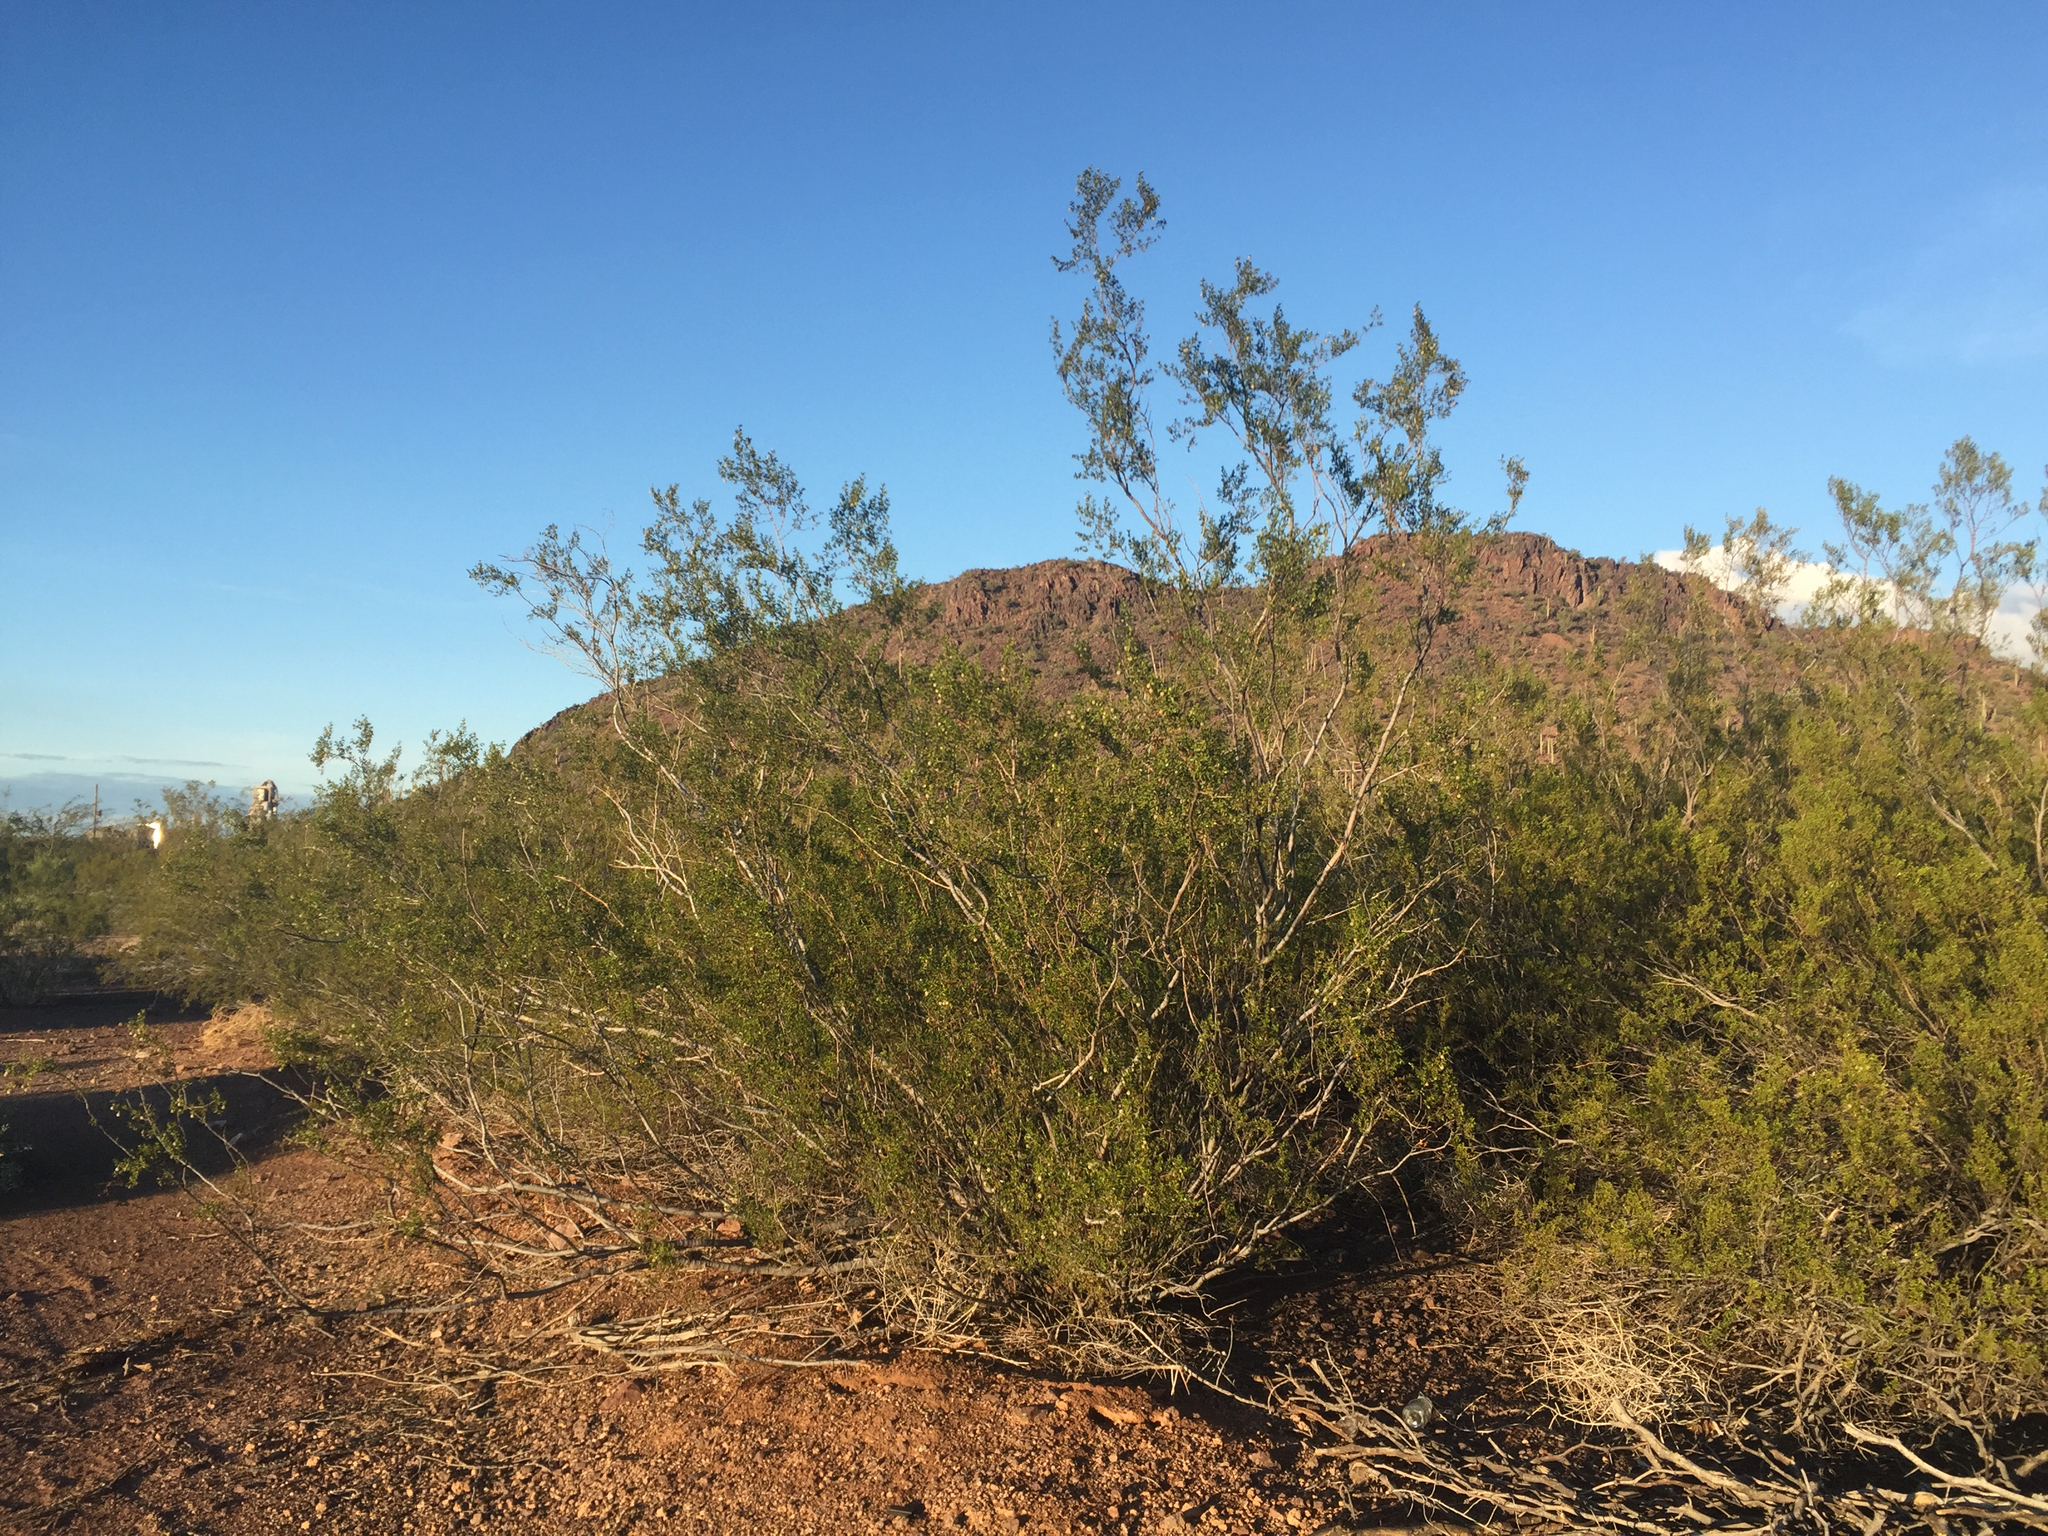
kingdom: Plantae
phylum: Tracheophyta
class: Magnoliopsida
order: Zygophyllales
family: Zygophyllaceae
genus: Larrea
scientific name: Larrea tridentata
